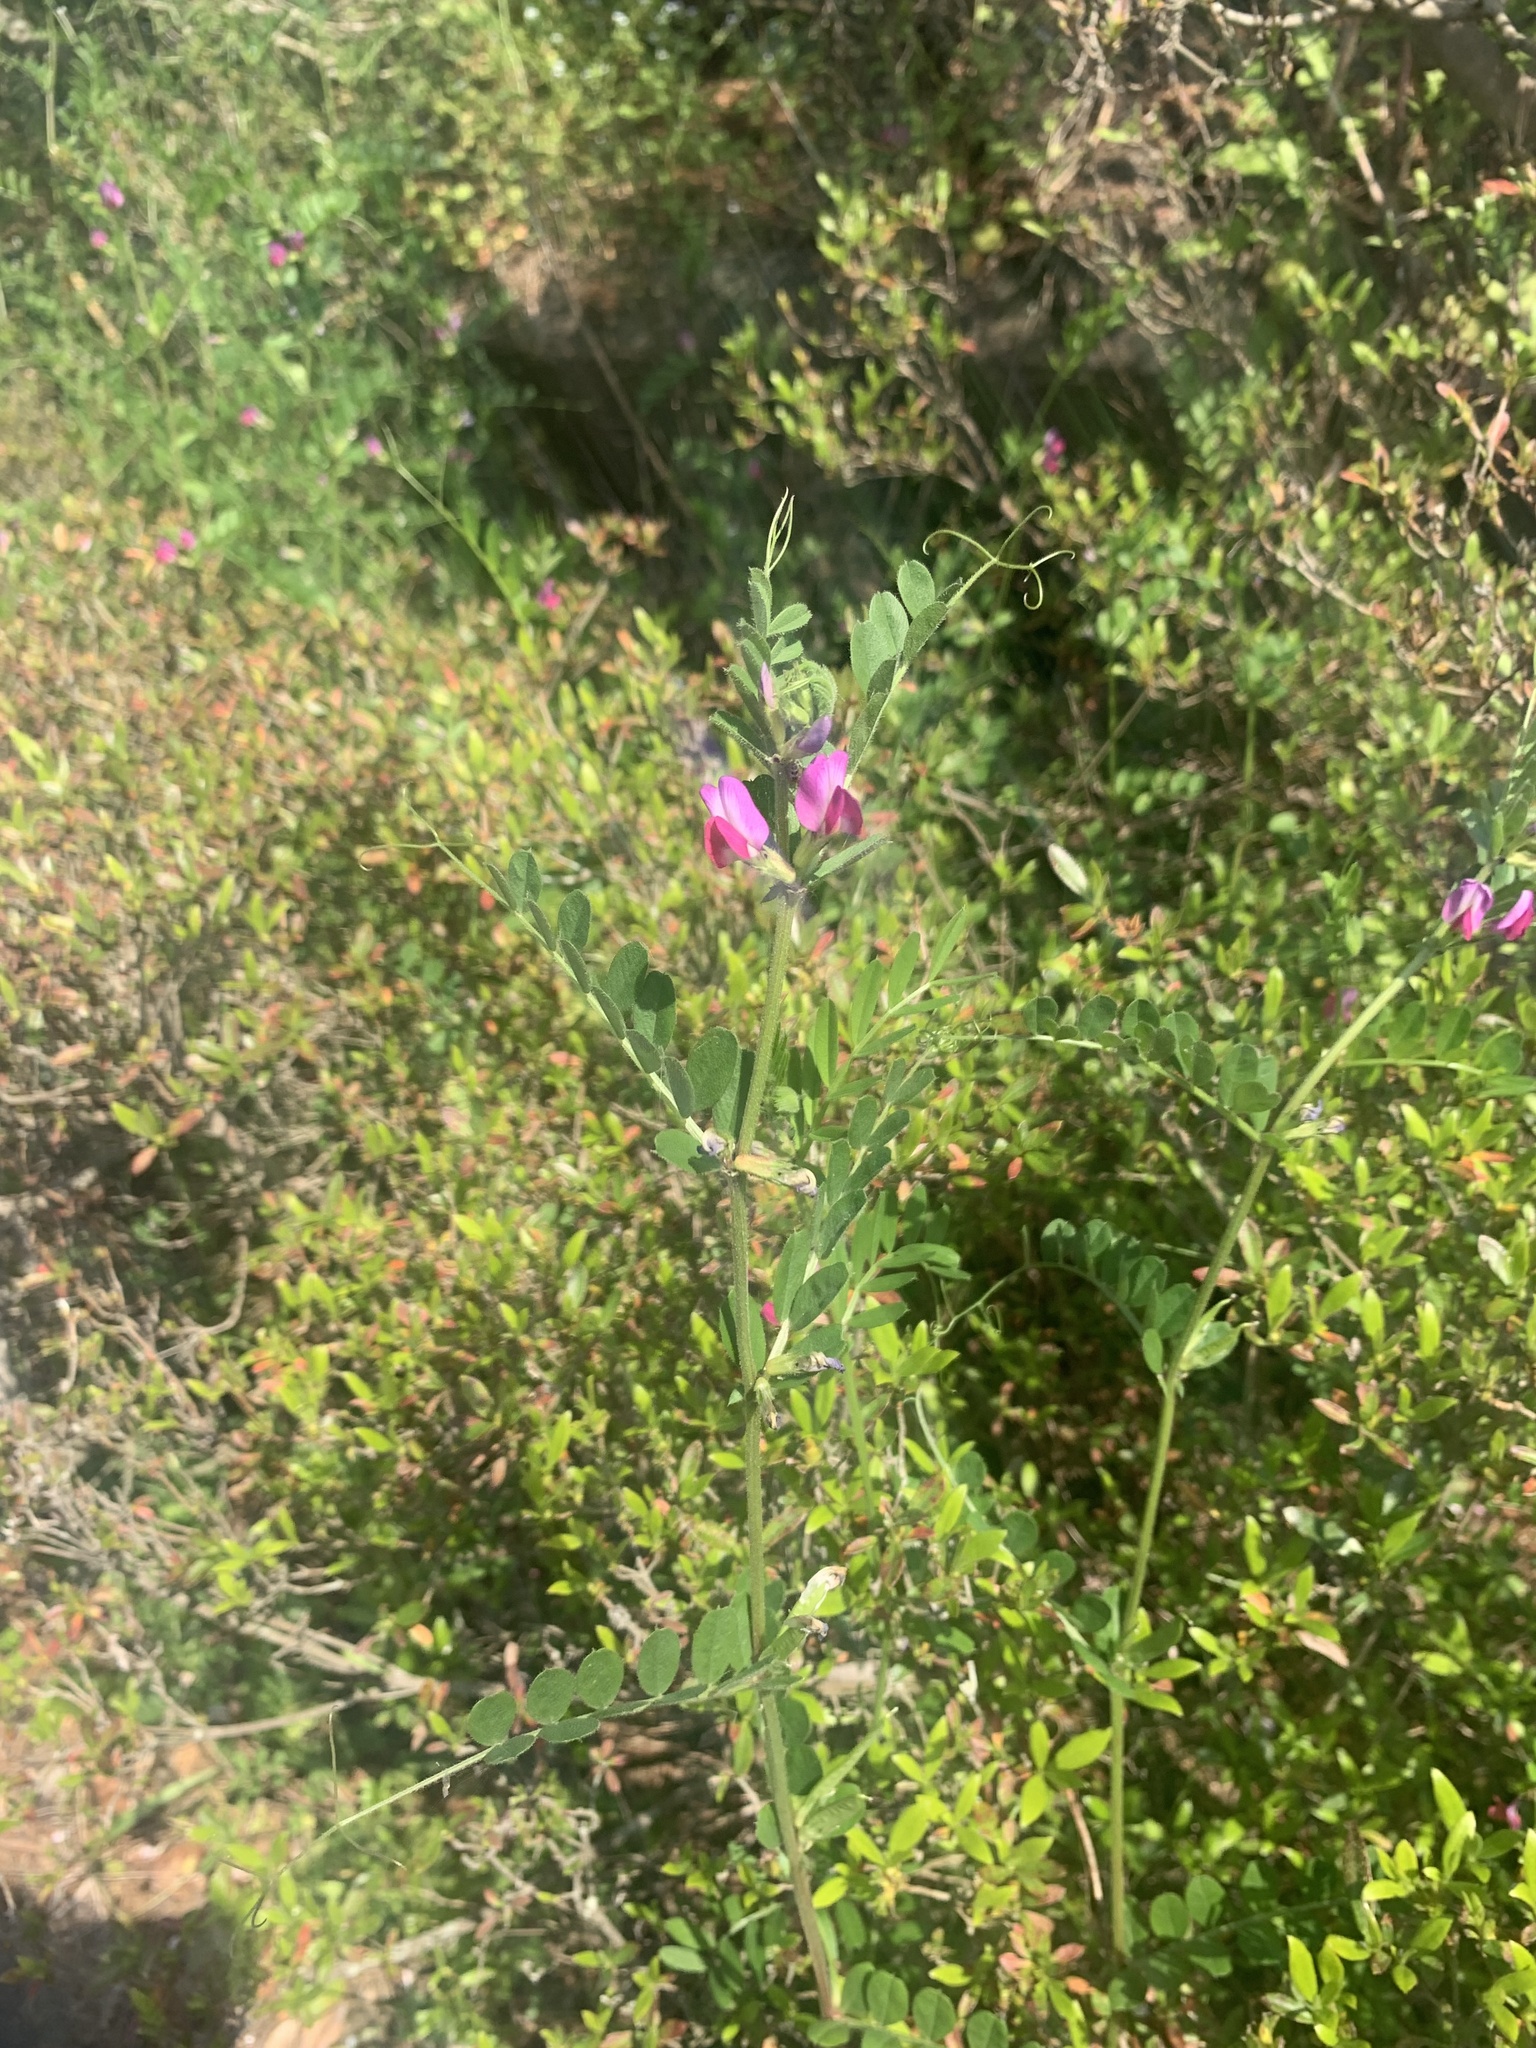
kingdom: Plantae
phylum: Tracheophyta
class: Magnoliopsida
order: Fabales
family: Fabaceae
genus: Vicia
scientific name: Vicia sativa
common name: Garden vetch
